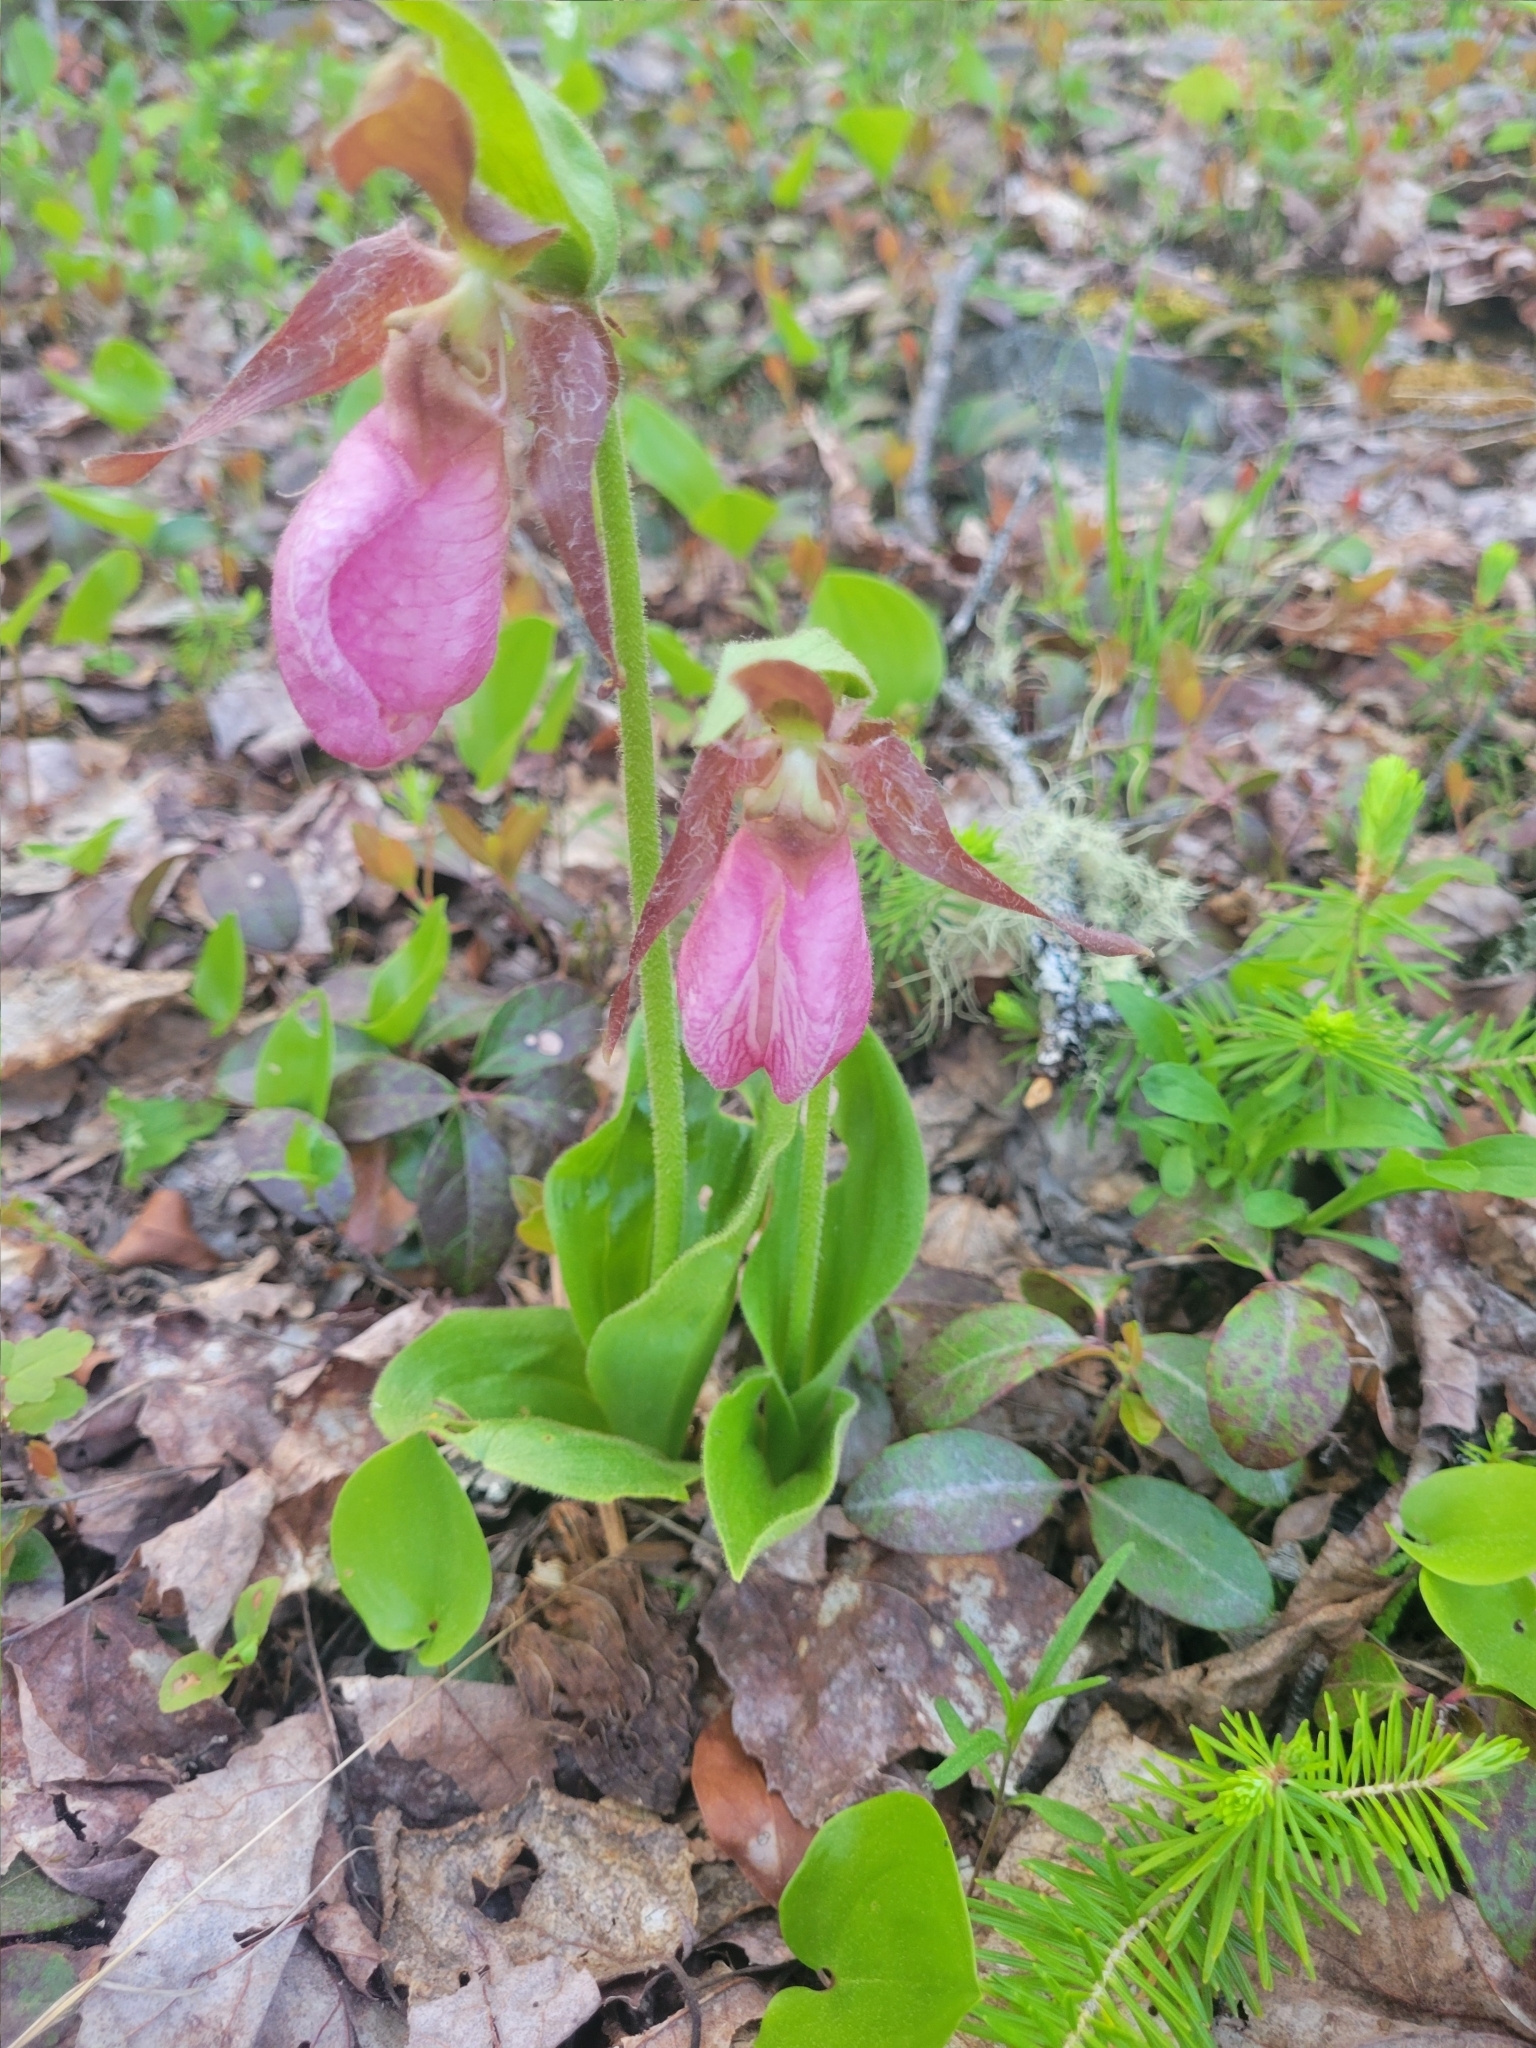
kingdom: Plantae
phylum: Tracheophyta
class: Liliopsida
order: Asparagales
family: Orchidaceae
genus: Cypripedium
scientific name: Cypripedium acaule
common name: Pink lady's-slipper
